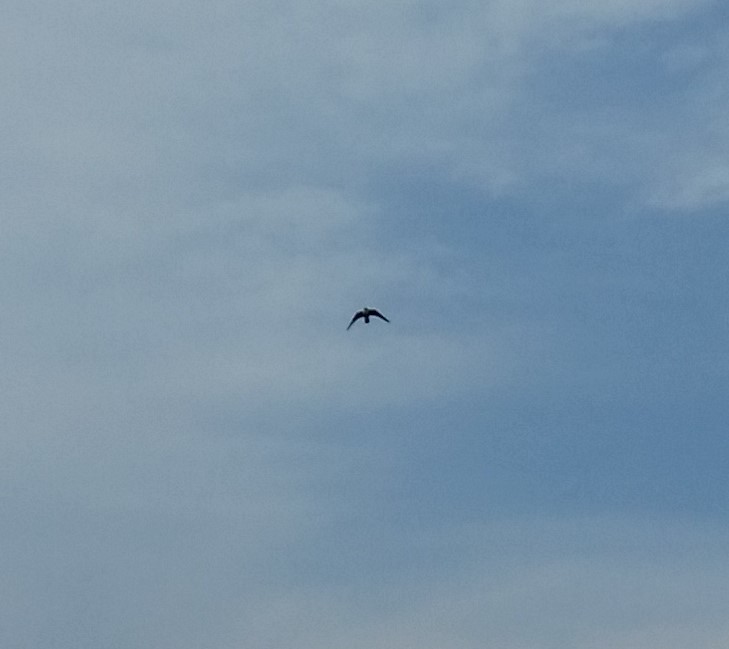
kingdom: Animalia
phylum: Chordata
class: Aves
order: Falconiformes
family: Falconidae
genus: Falco
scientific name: Falco peregrinus
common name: Peregrine falcon
